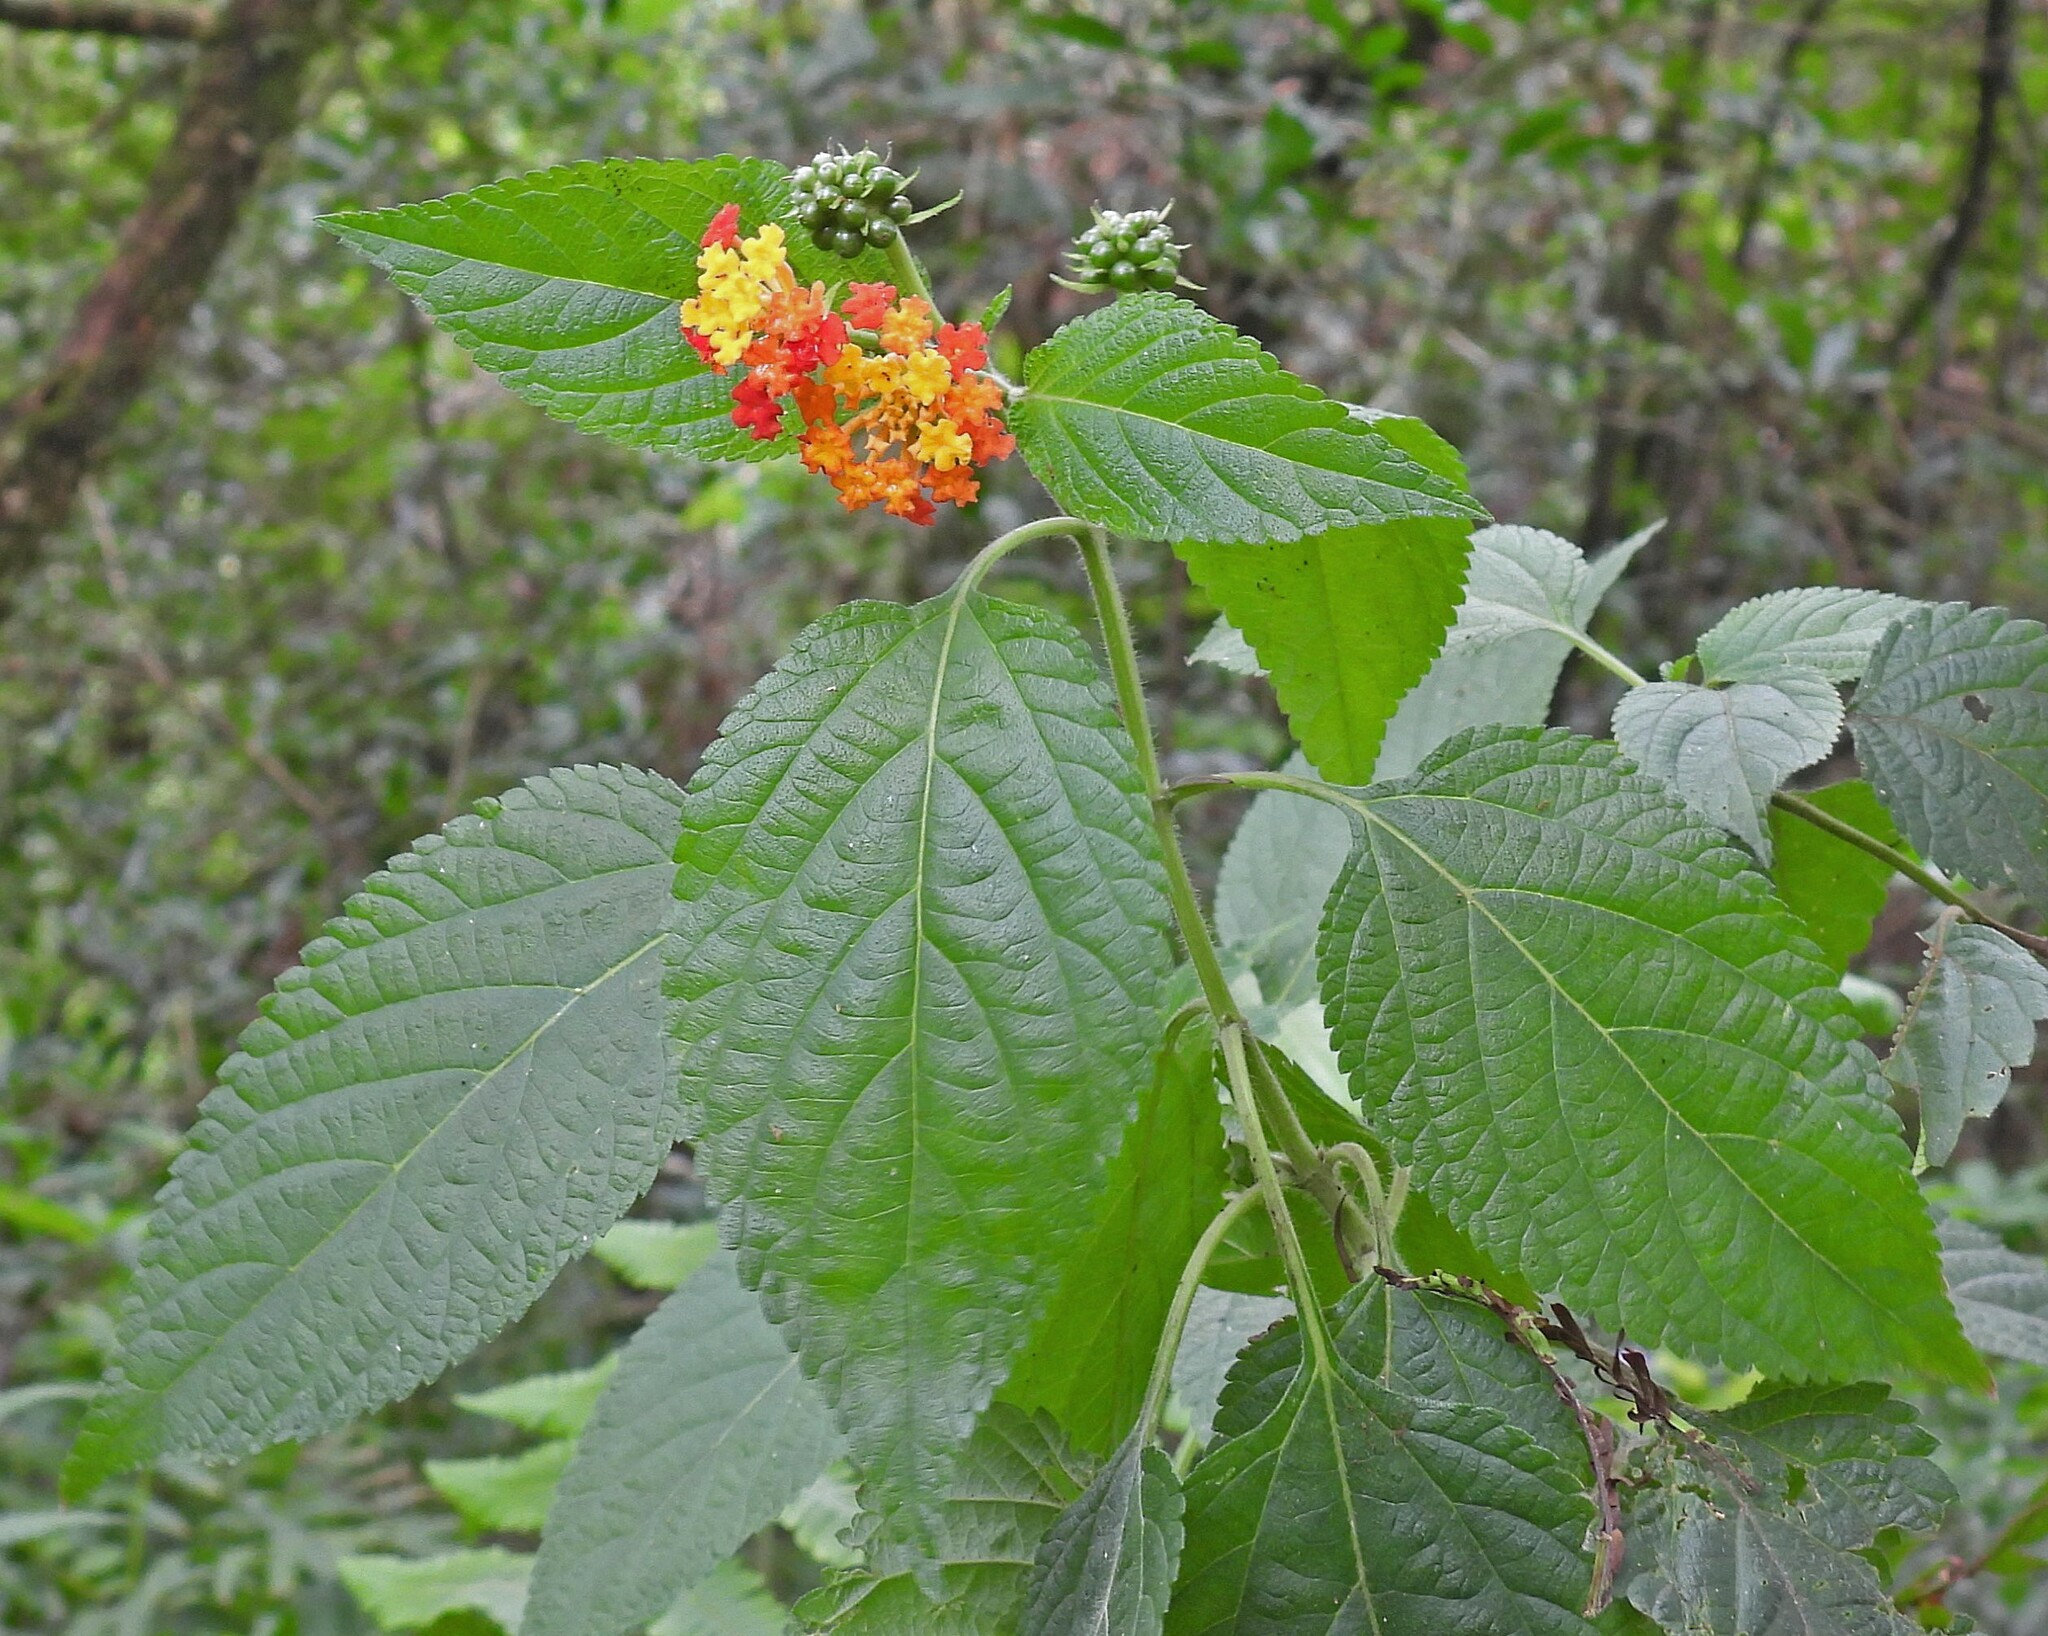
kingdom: Plantae
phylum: Tracheophyta
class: Magnoliopsida
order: Lamiales
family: Verbenaceae
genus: Lantana
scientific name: Lantana camara
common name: Lantana
